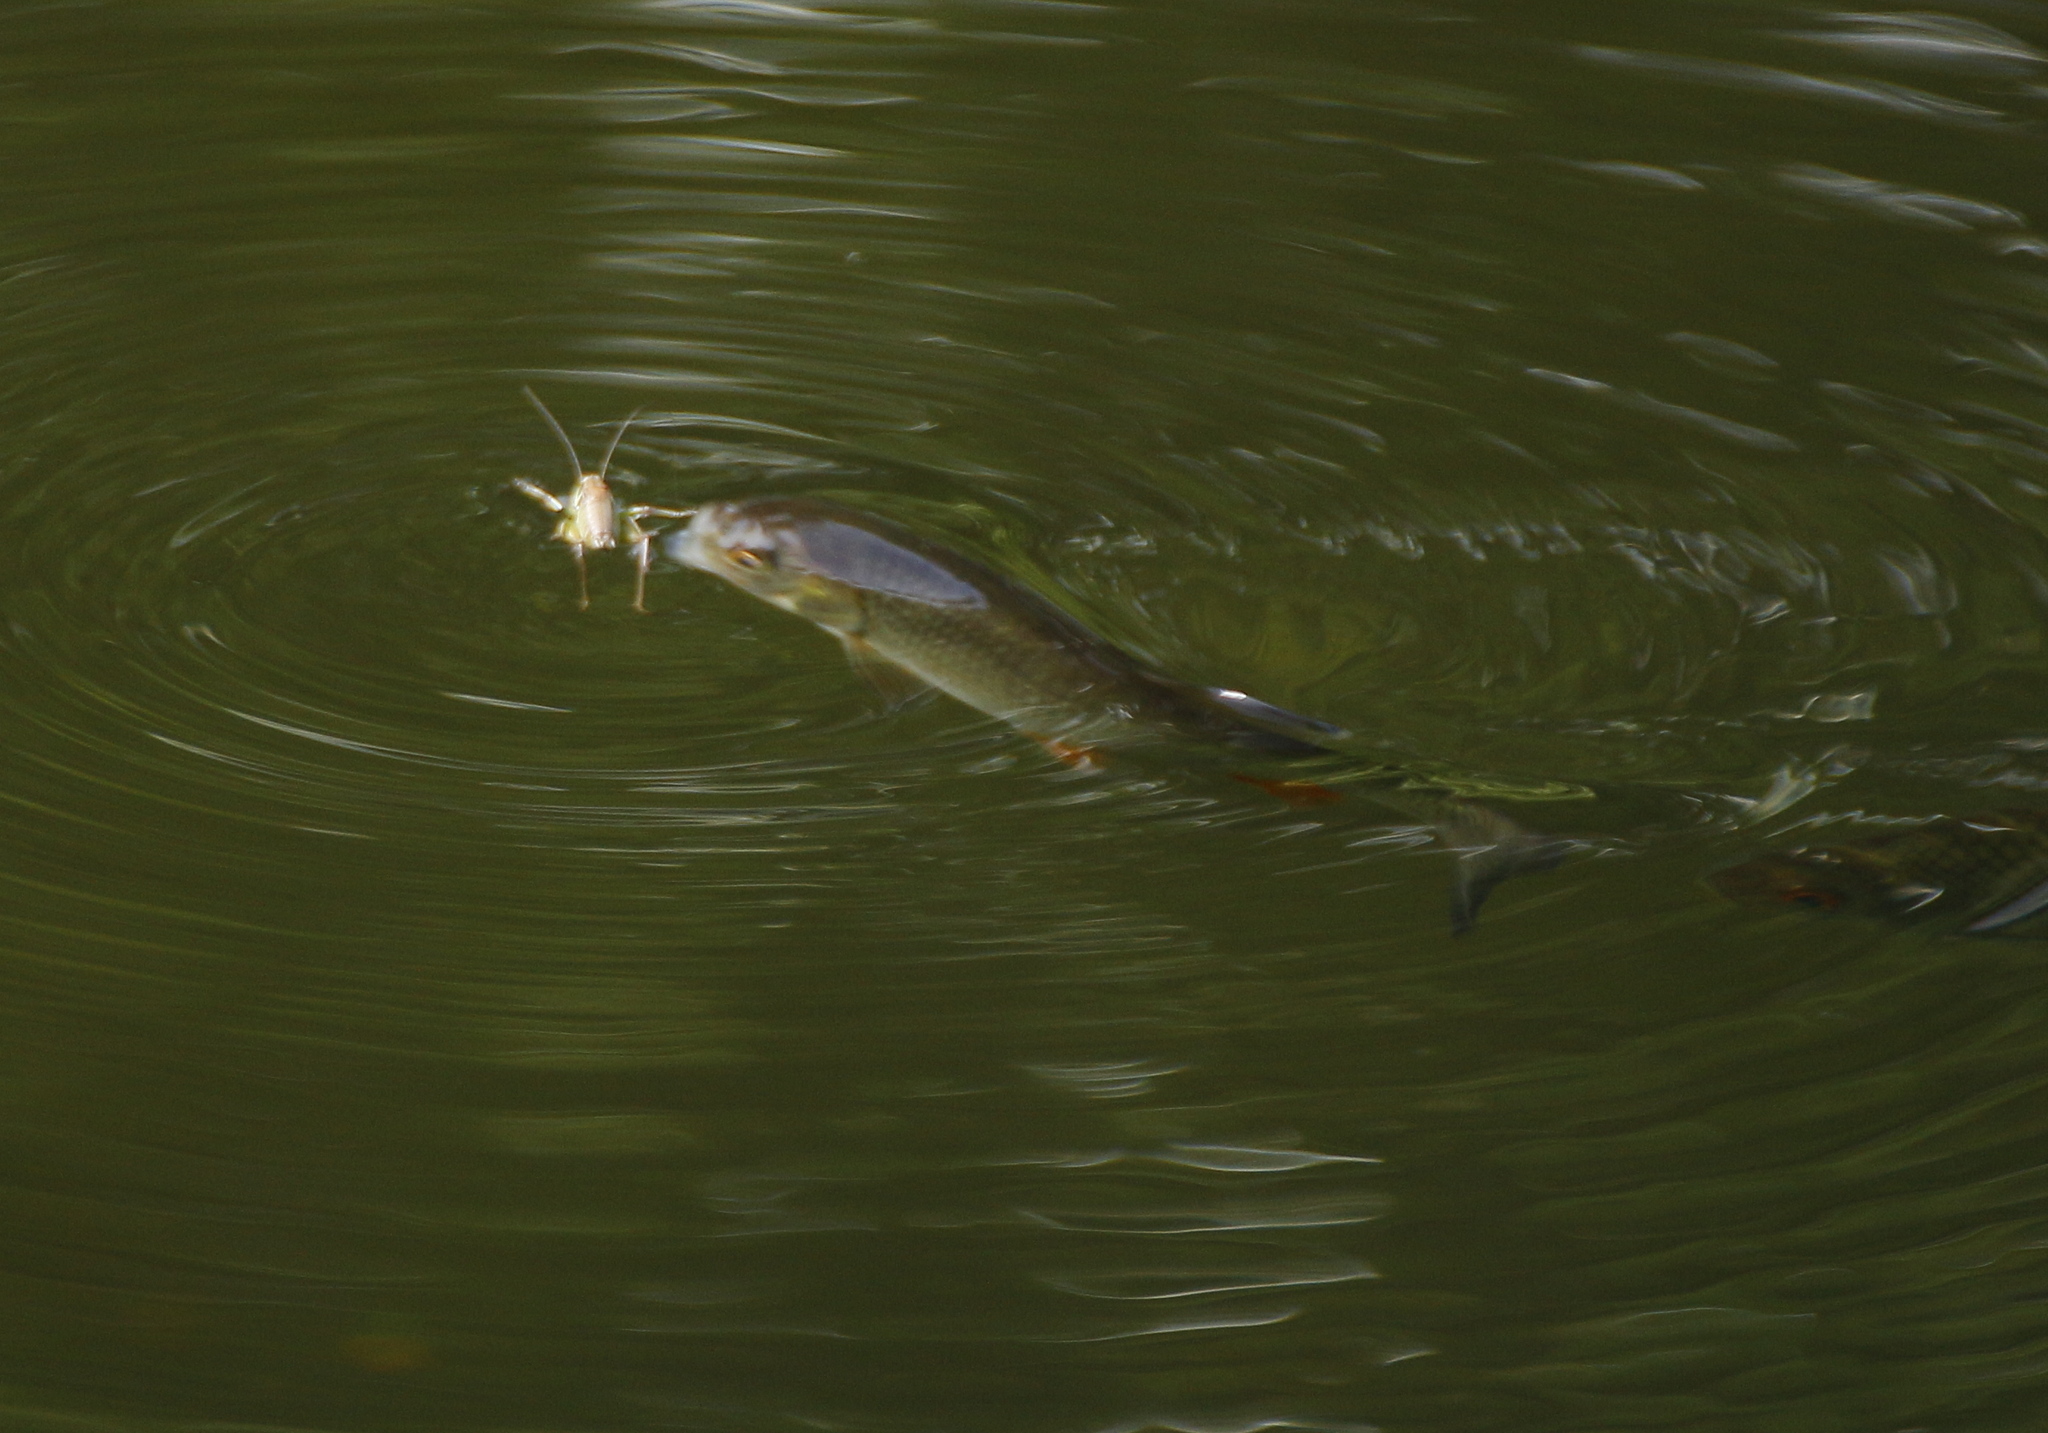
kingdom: Animalia
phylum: Chordata
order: Cypriniformes
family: Cyprinidae
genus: Squalius
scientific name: Squalius cephalus
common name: Chub
